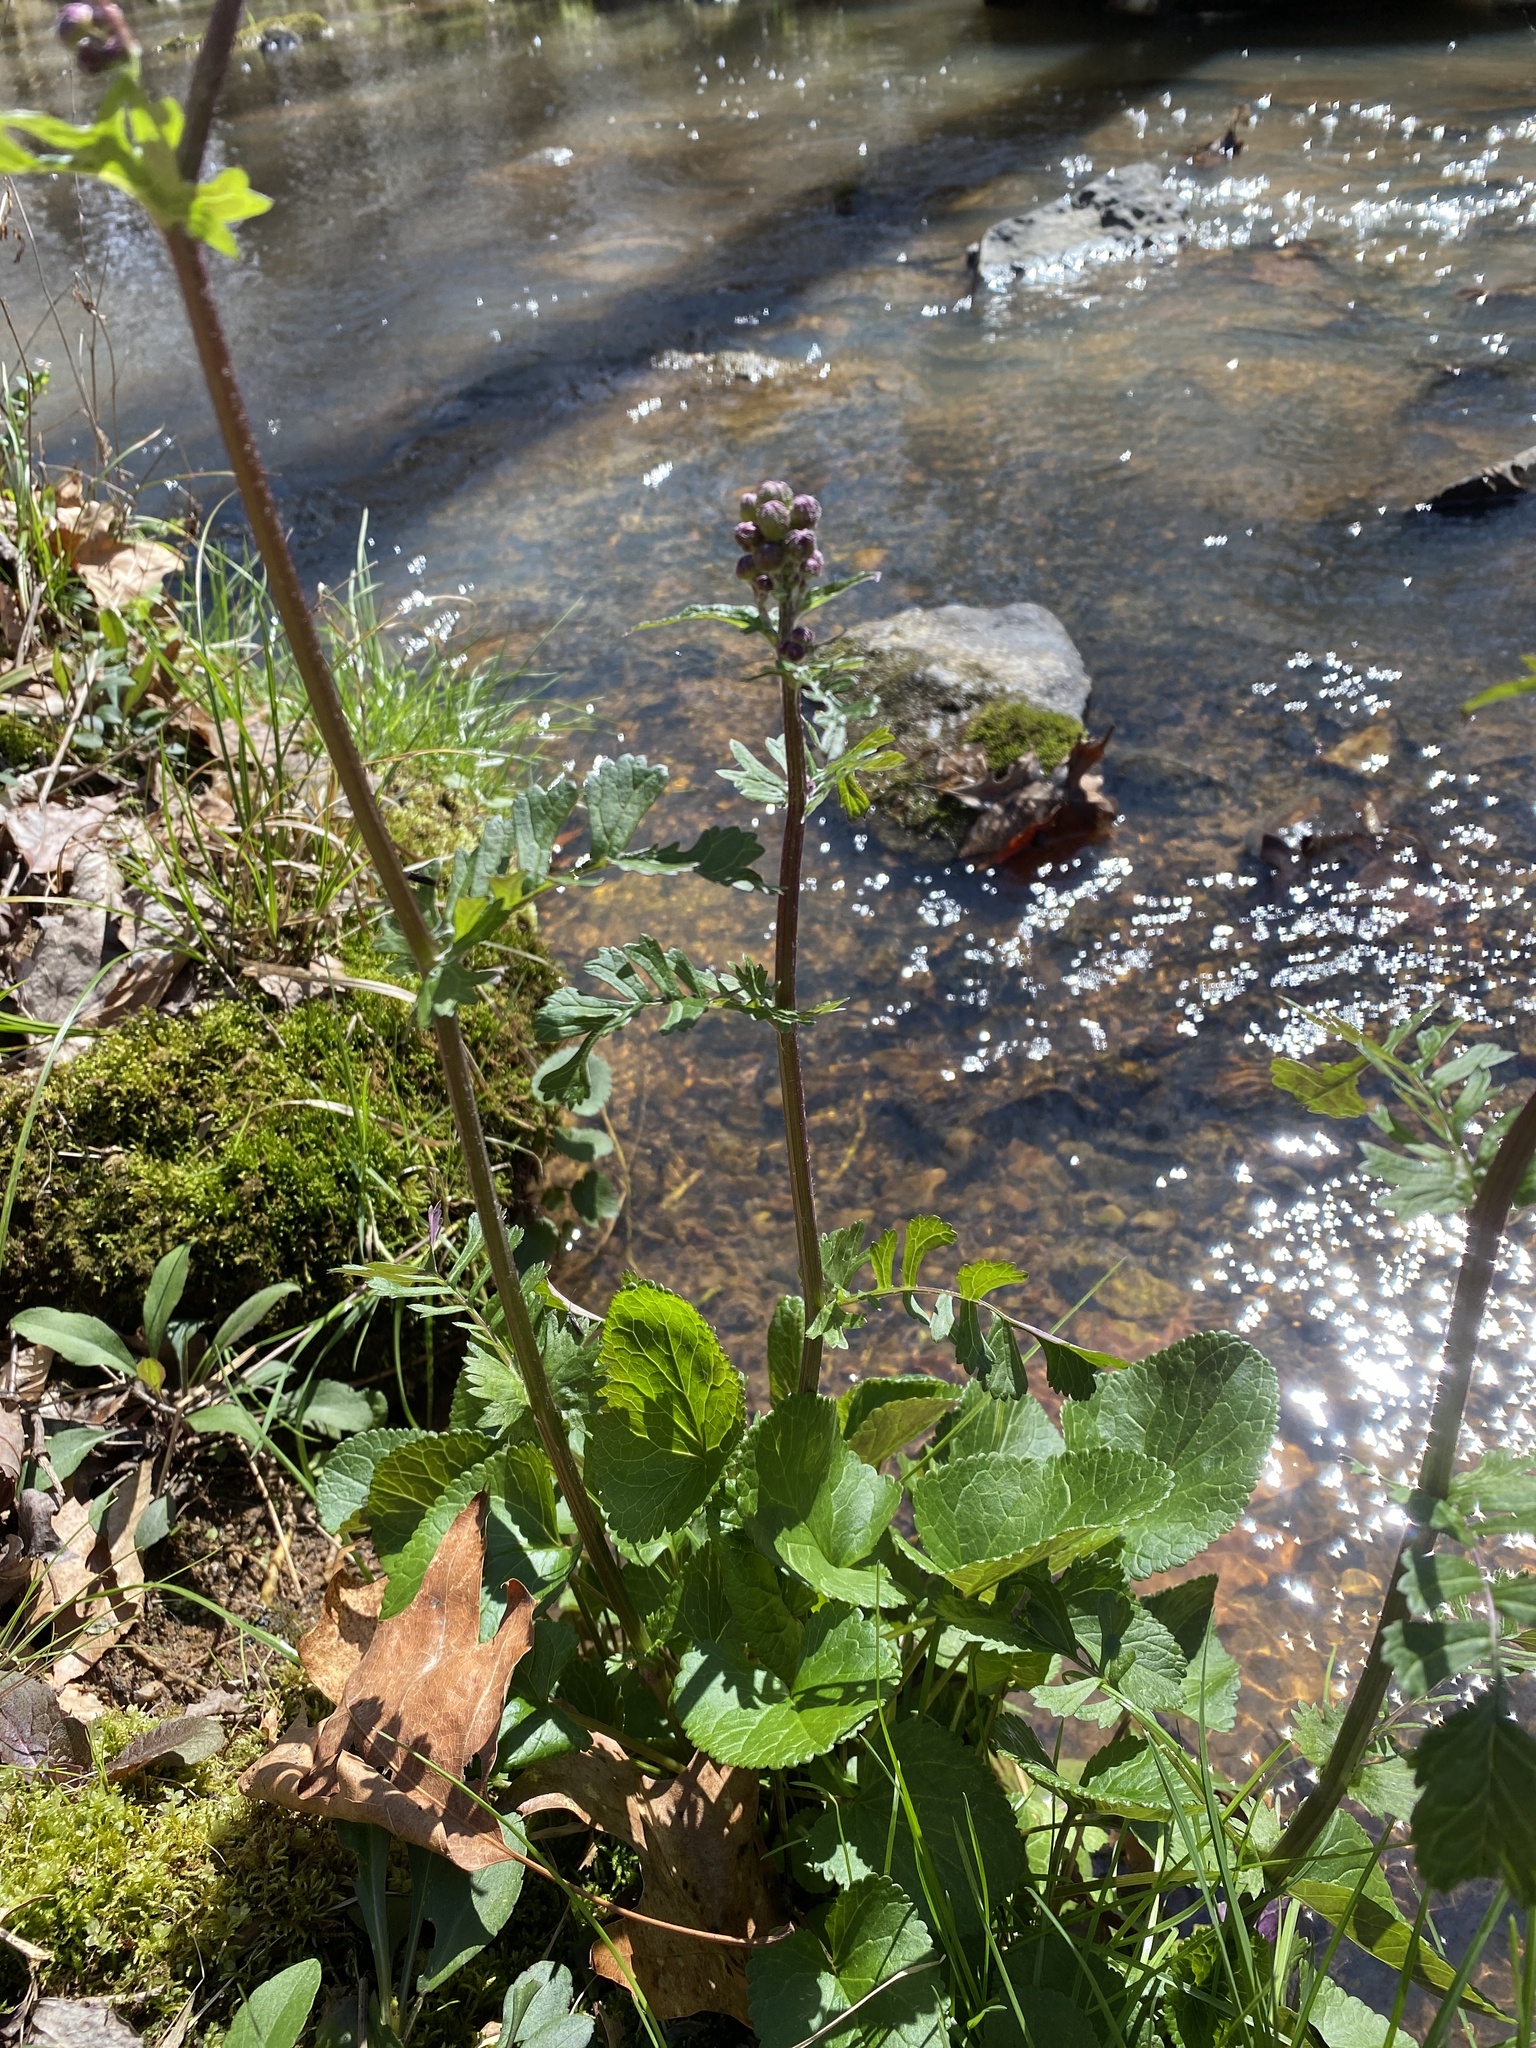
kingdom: Plantae
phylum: Tracheophyta
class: Magnoliopsida
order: Asterales
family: Asteraceae
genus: Packera
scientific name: Packera aurea
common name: Golden groundsel
